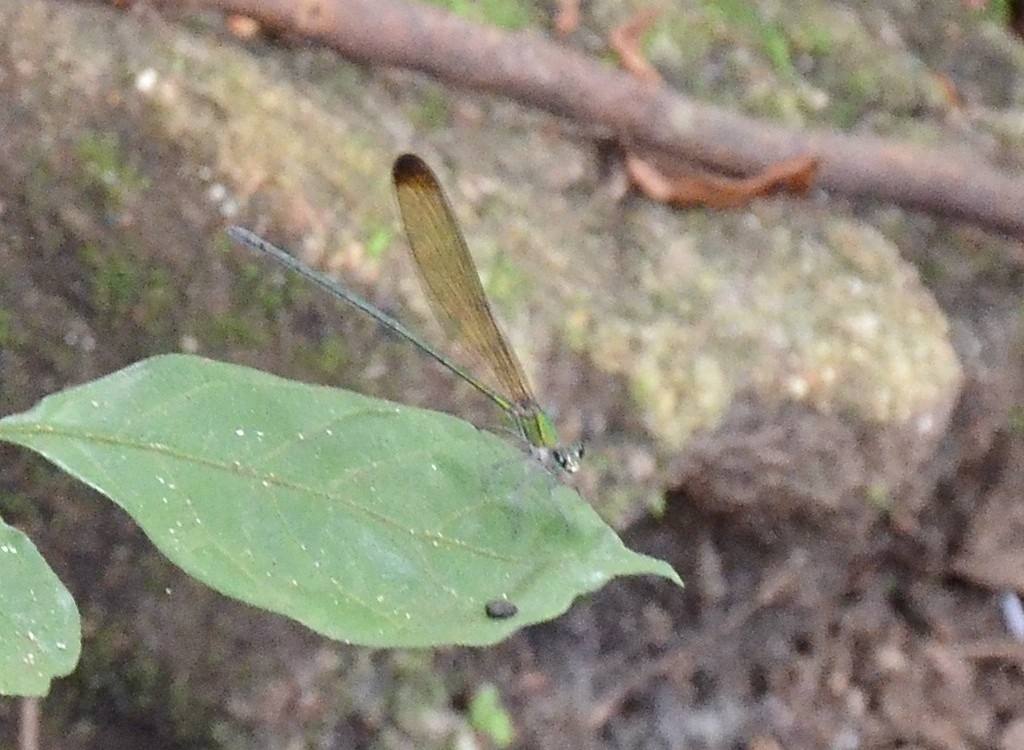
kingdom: Animalia
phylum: Arthropoda
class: Insecta
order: Odonata
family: Calopterygidae
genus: Vestalis
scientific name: Vestalis apicalis
